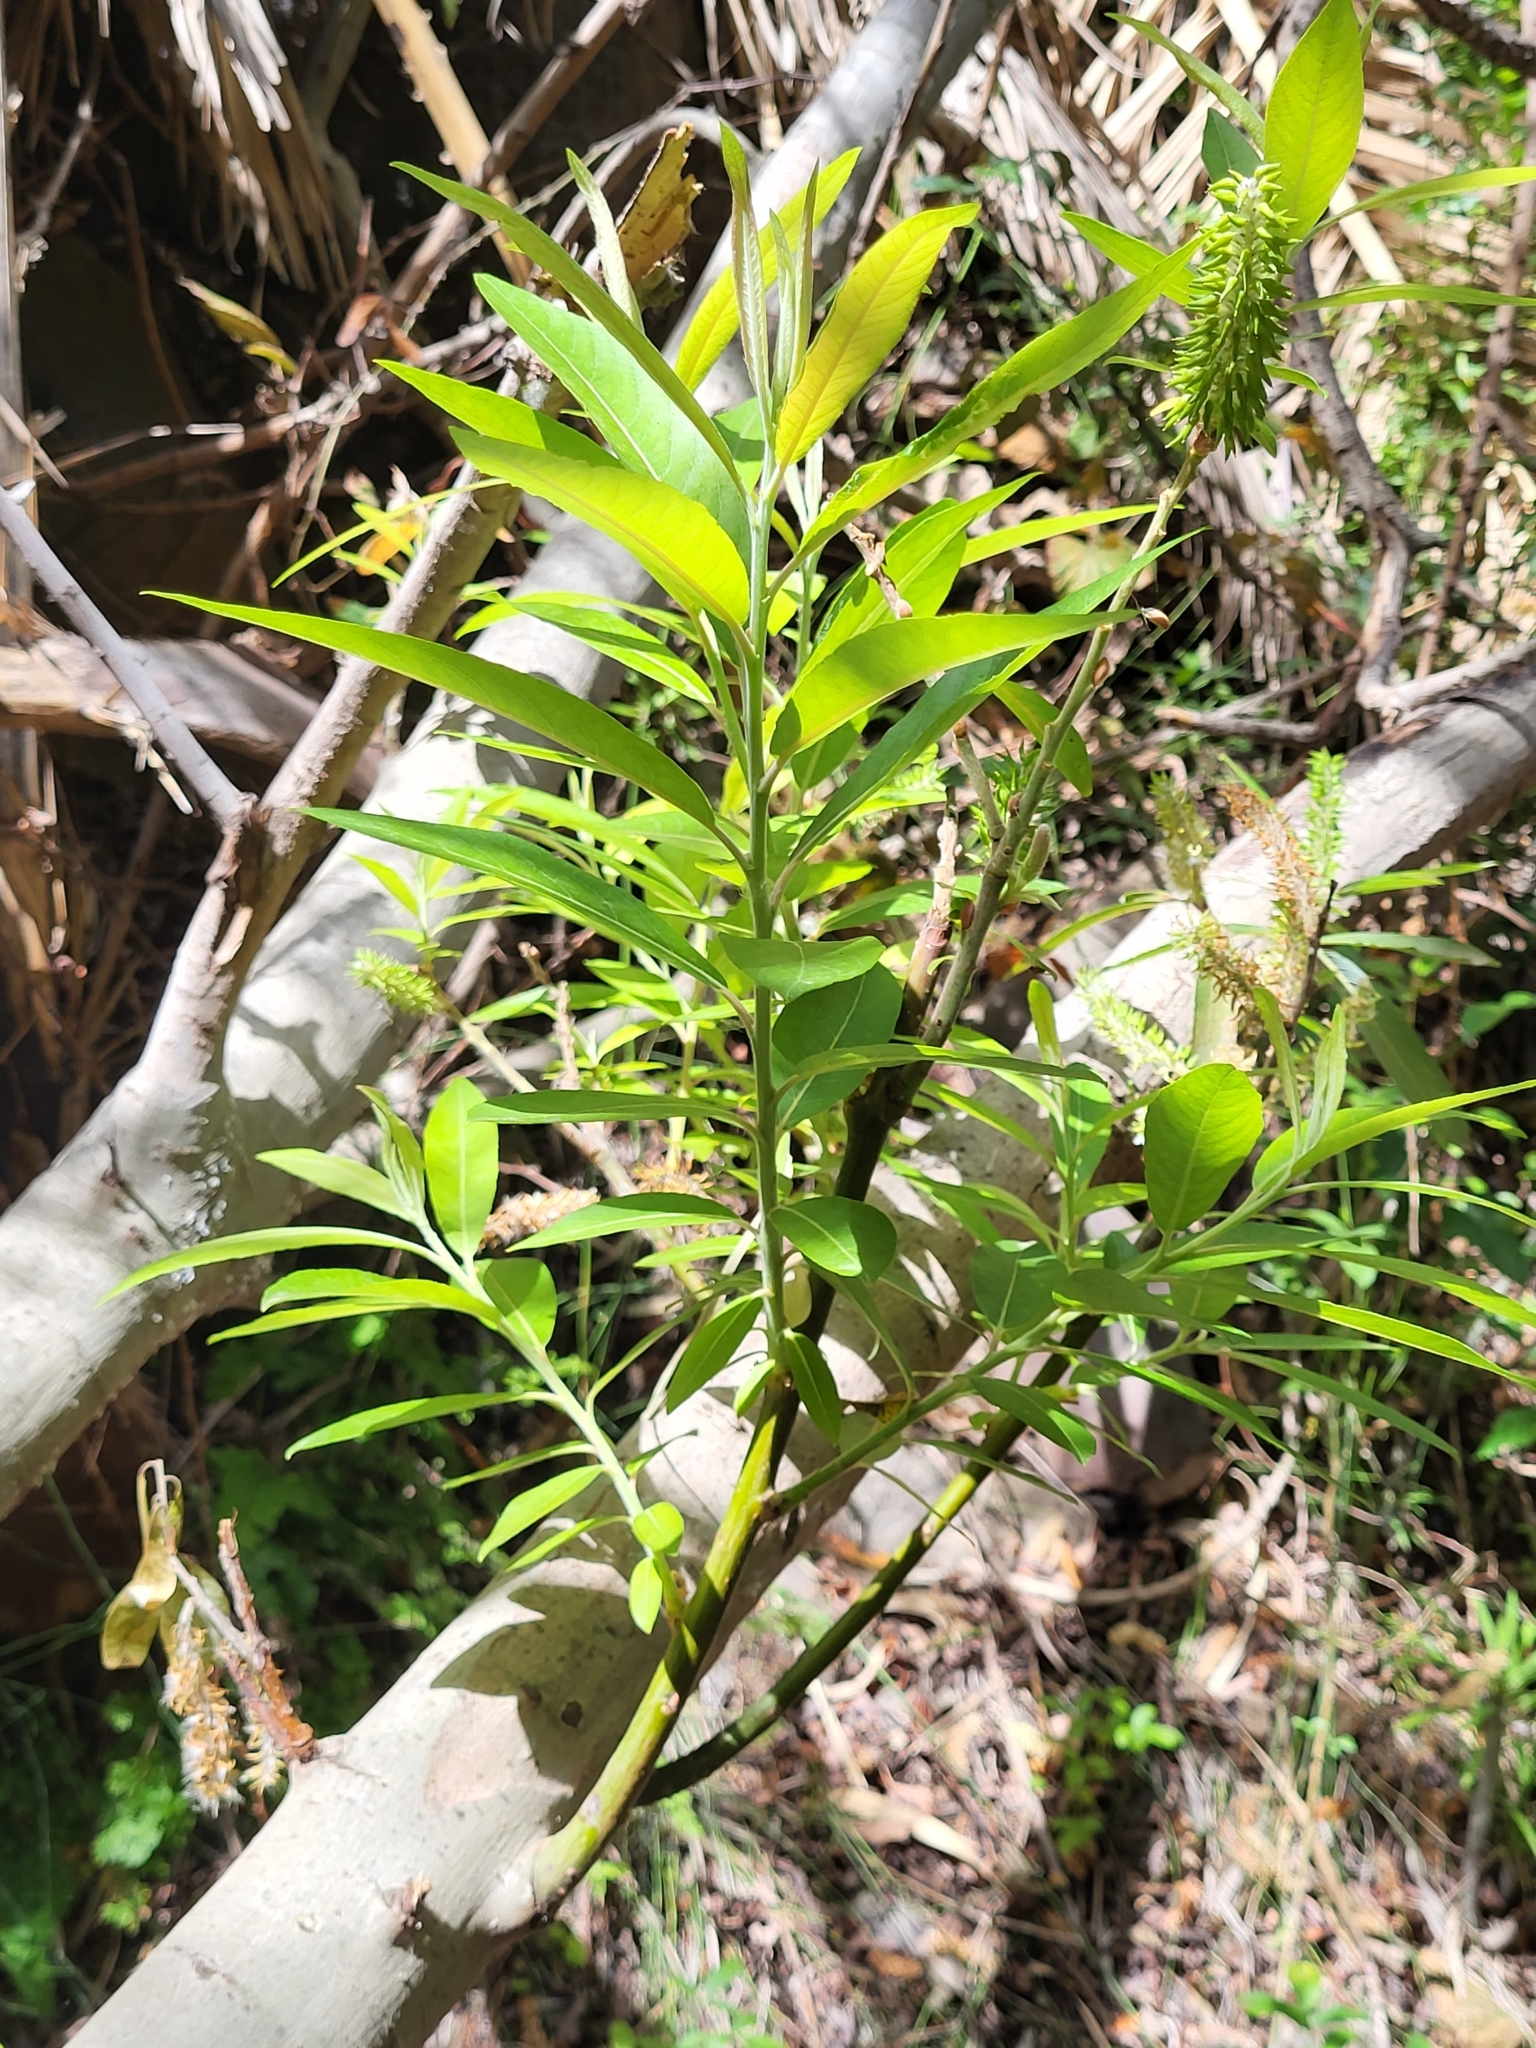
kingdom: Plantae
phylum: Tracheophyta
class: Magnoliopsida
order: Malpighiales
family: Salicaceae
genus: Salix
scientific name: Salix canariensis
